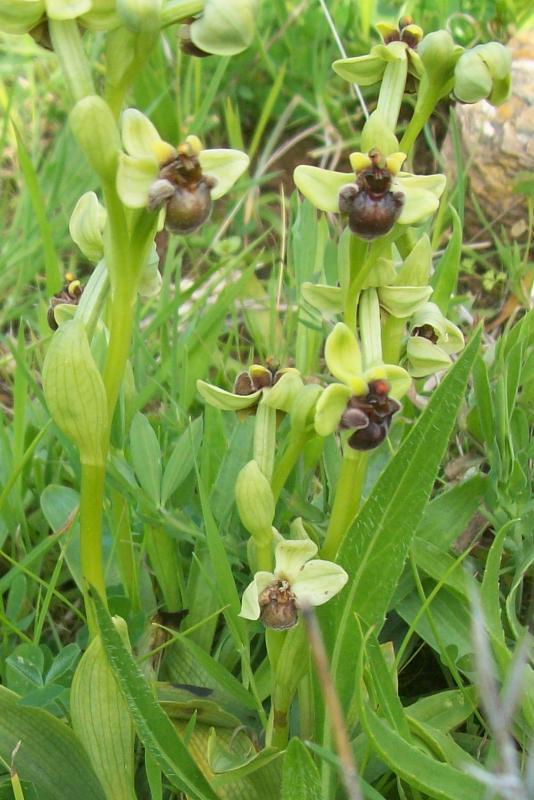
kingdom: Plantae
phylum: Tracheophyta
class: Liliopsida
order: Asparagales
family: Orchidaceae
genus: Ophrys
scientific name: Ophrys bombyliflora
